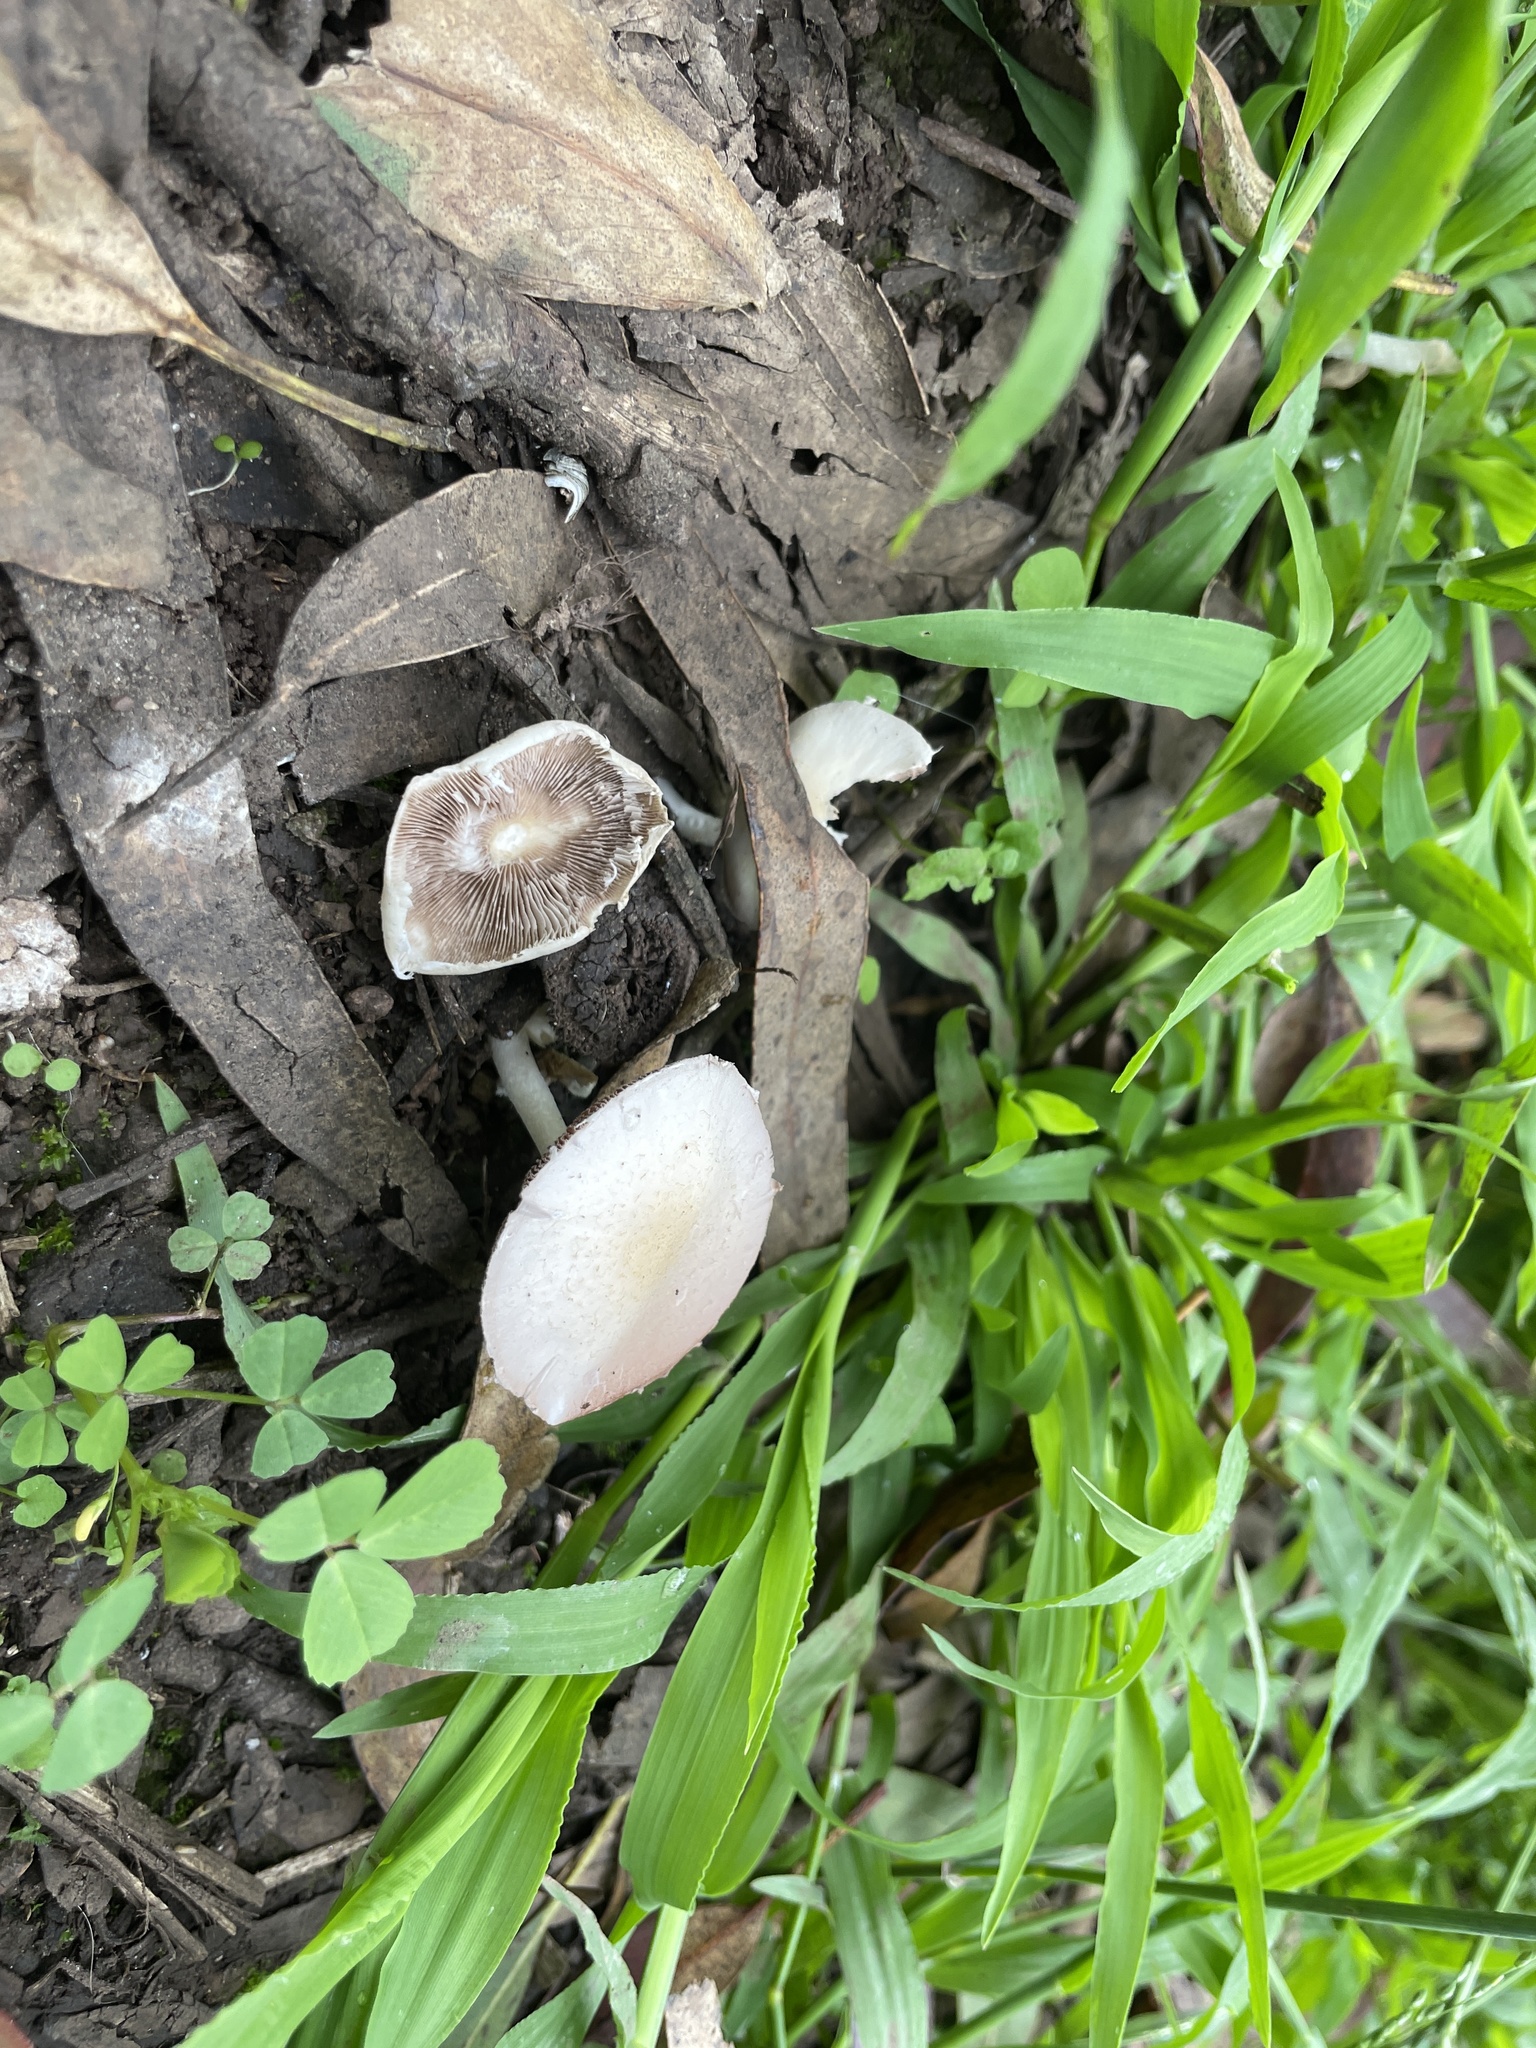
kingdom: Fungi
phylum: Basidiomycota
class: Agaricomycetes
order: Agaricales
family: Psathyrellaceae
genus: Candolleomyces
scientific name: Candolleomyces candolleanus
